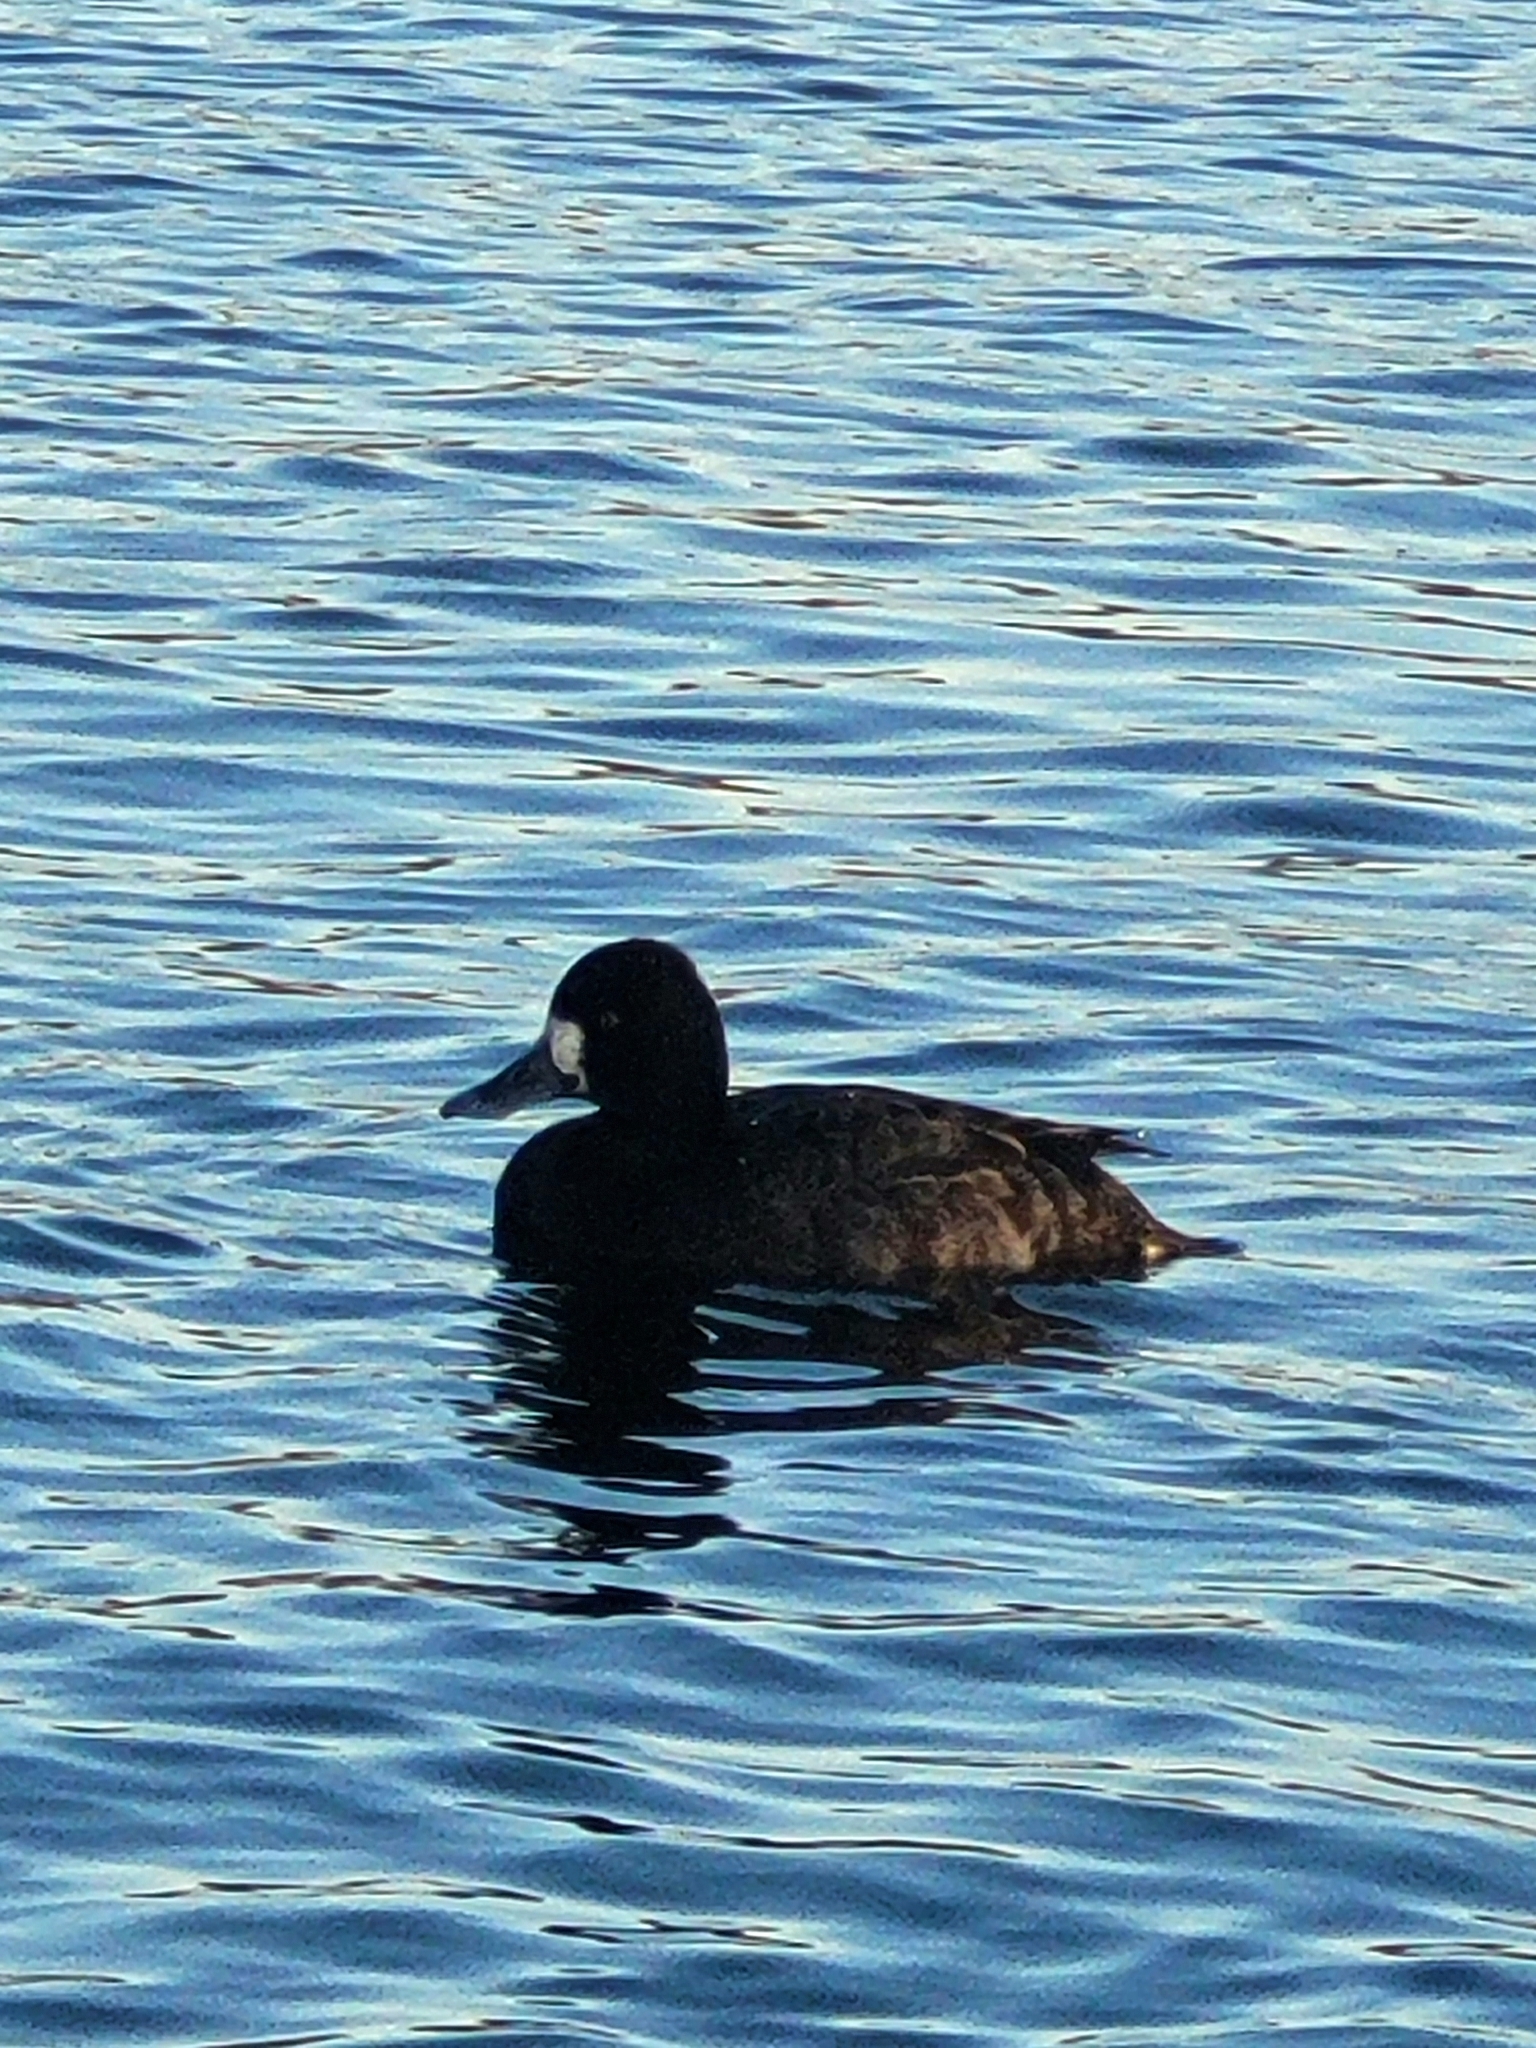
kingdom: Animalia
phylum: Chordata
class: Aves
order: Anseriformes
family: Anatidae
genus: Aythya
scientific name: Aythya affinis
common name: Lesser scaup
